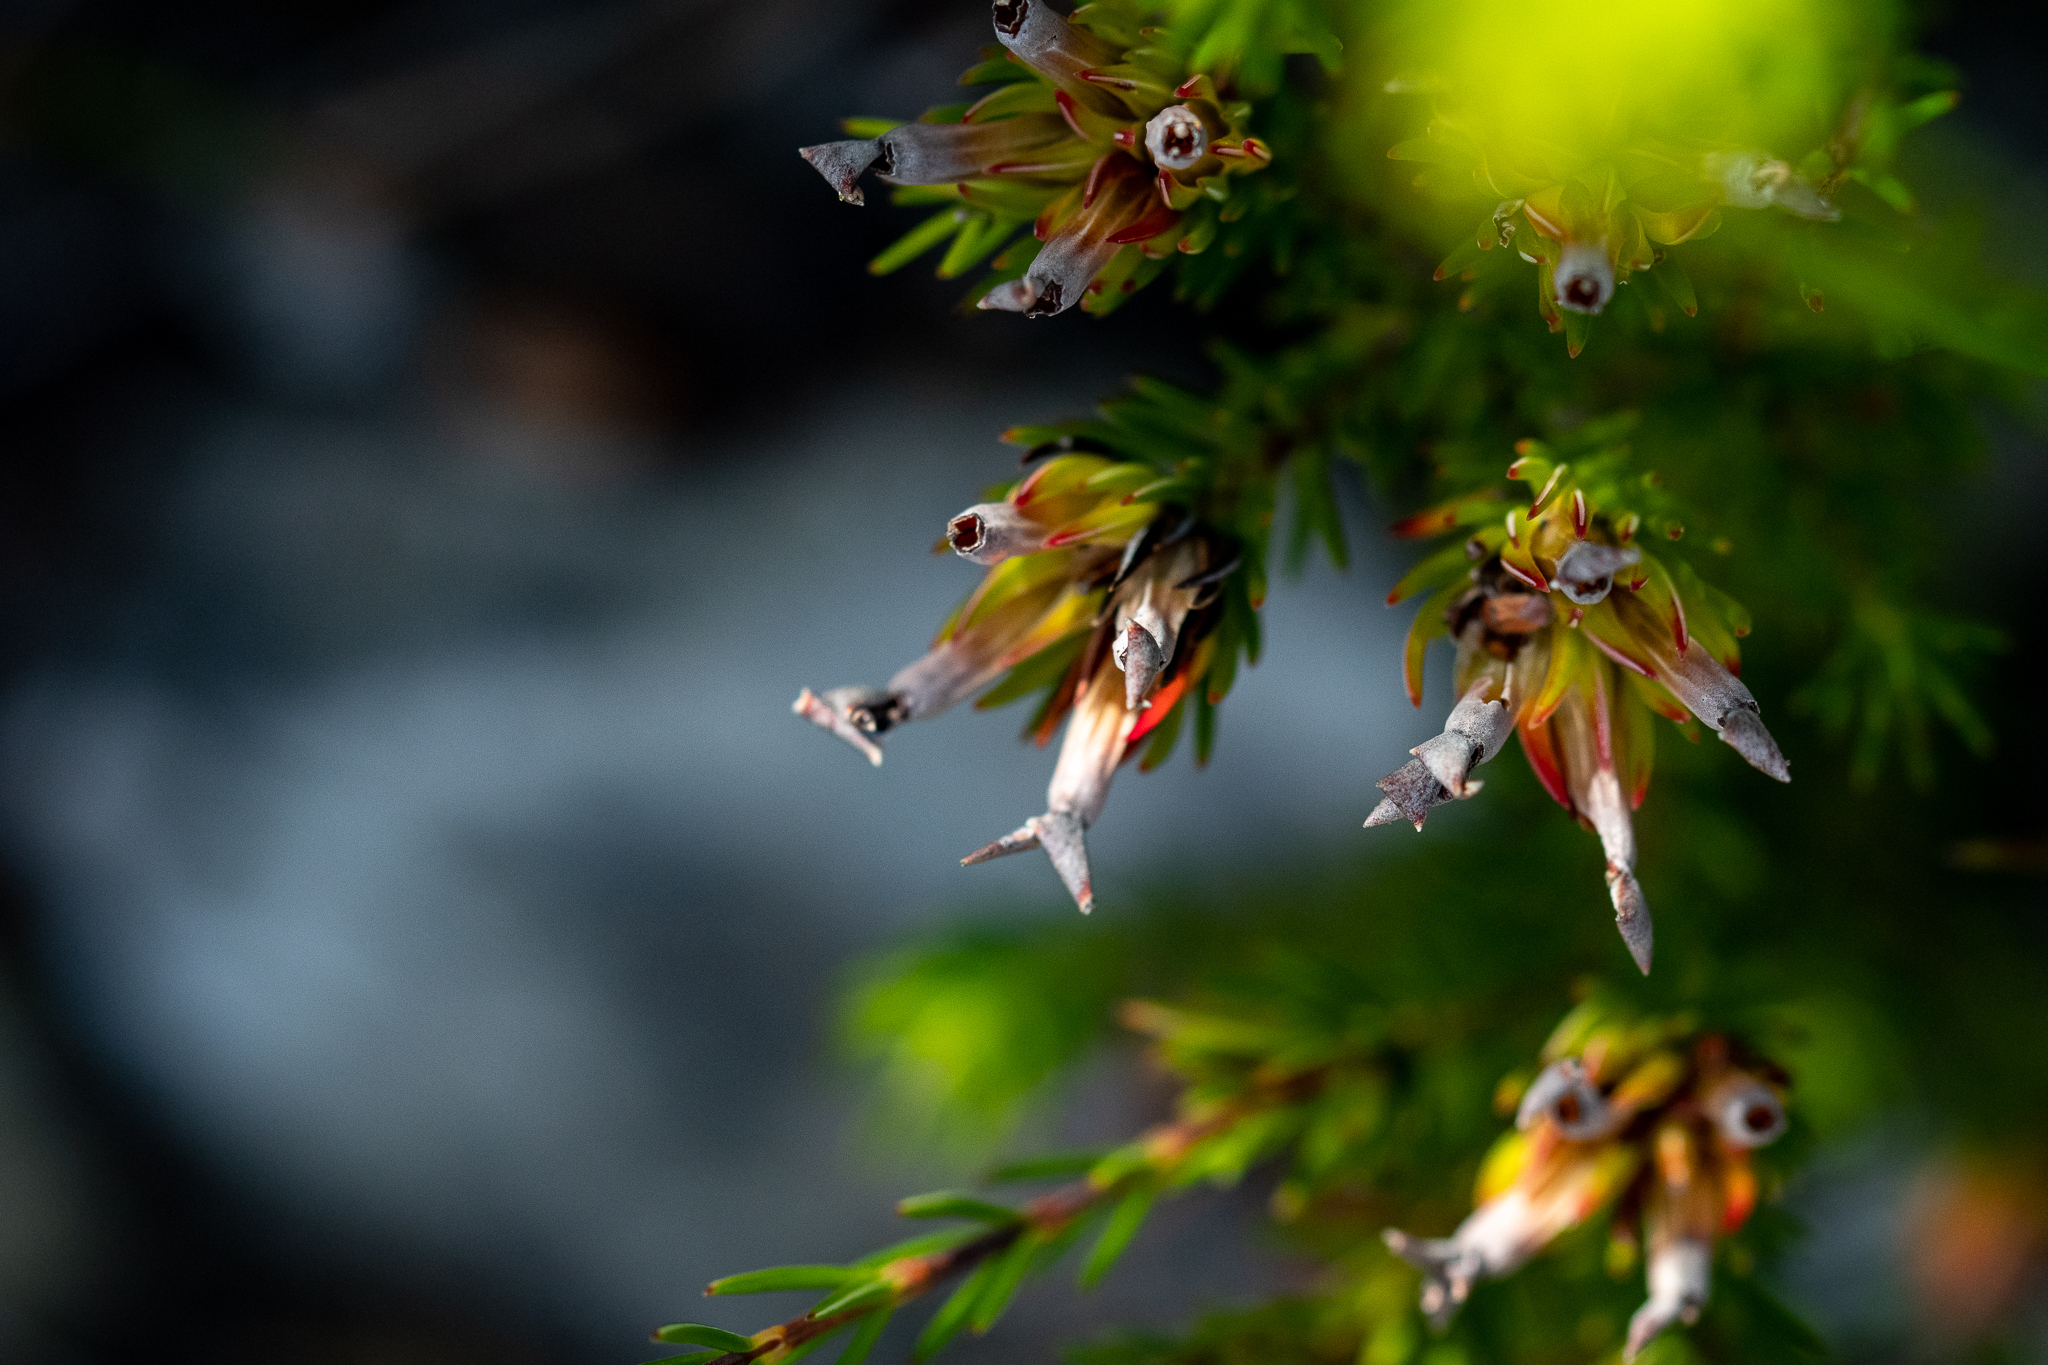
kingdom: Plantae
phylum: Tracheophyta
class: Magnoliopsida
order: Ericales
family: Ericaceae
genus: Erica
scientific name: Erica fastigiata
